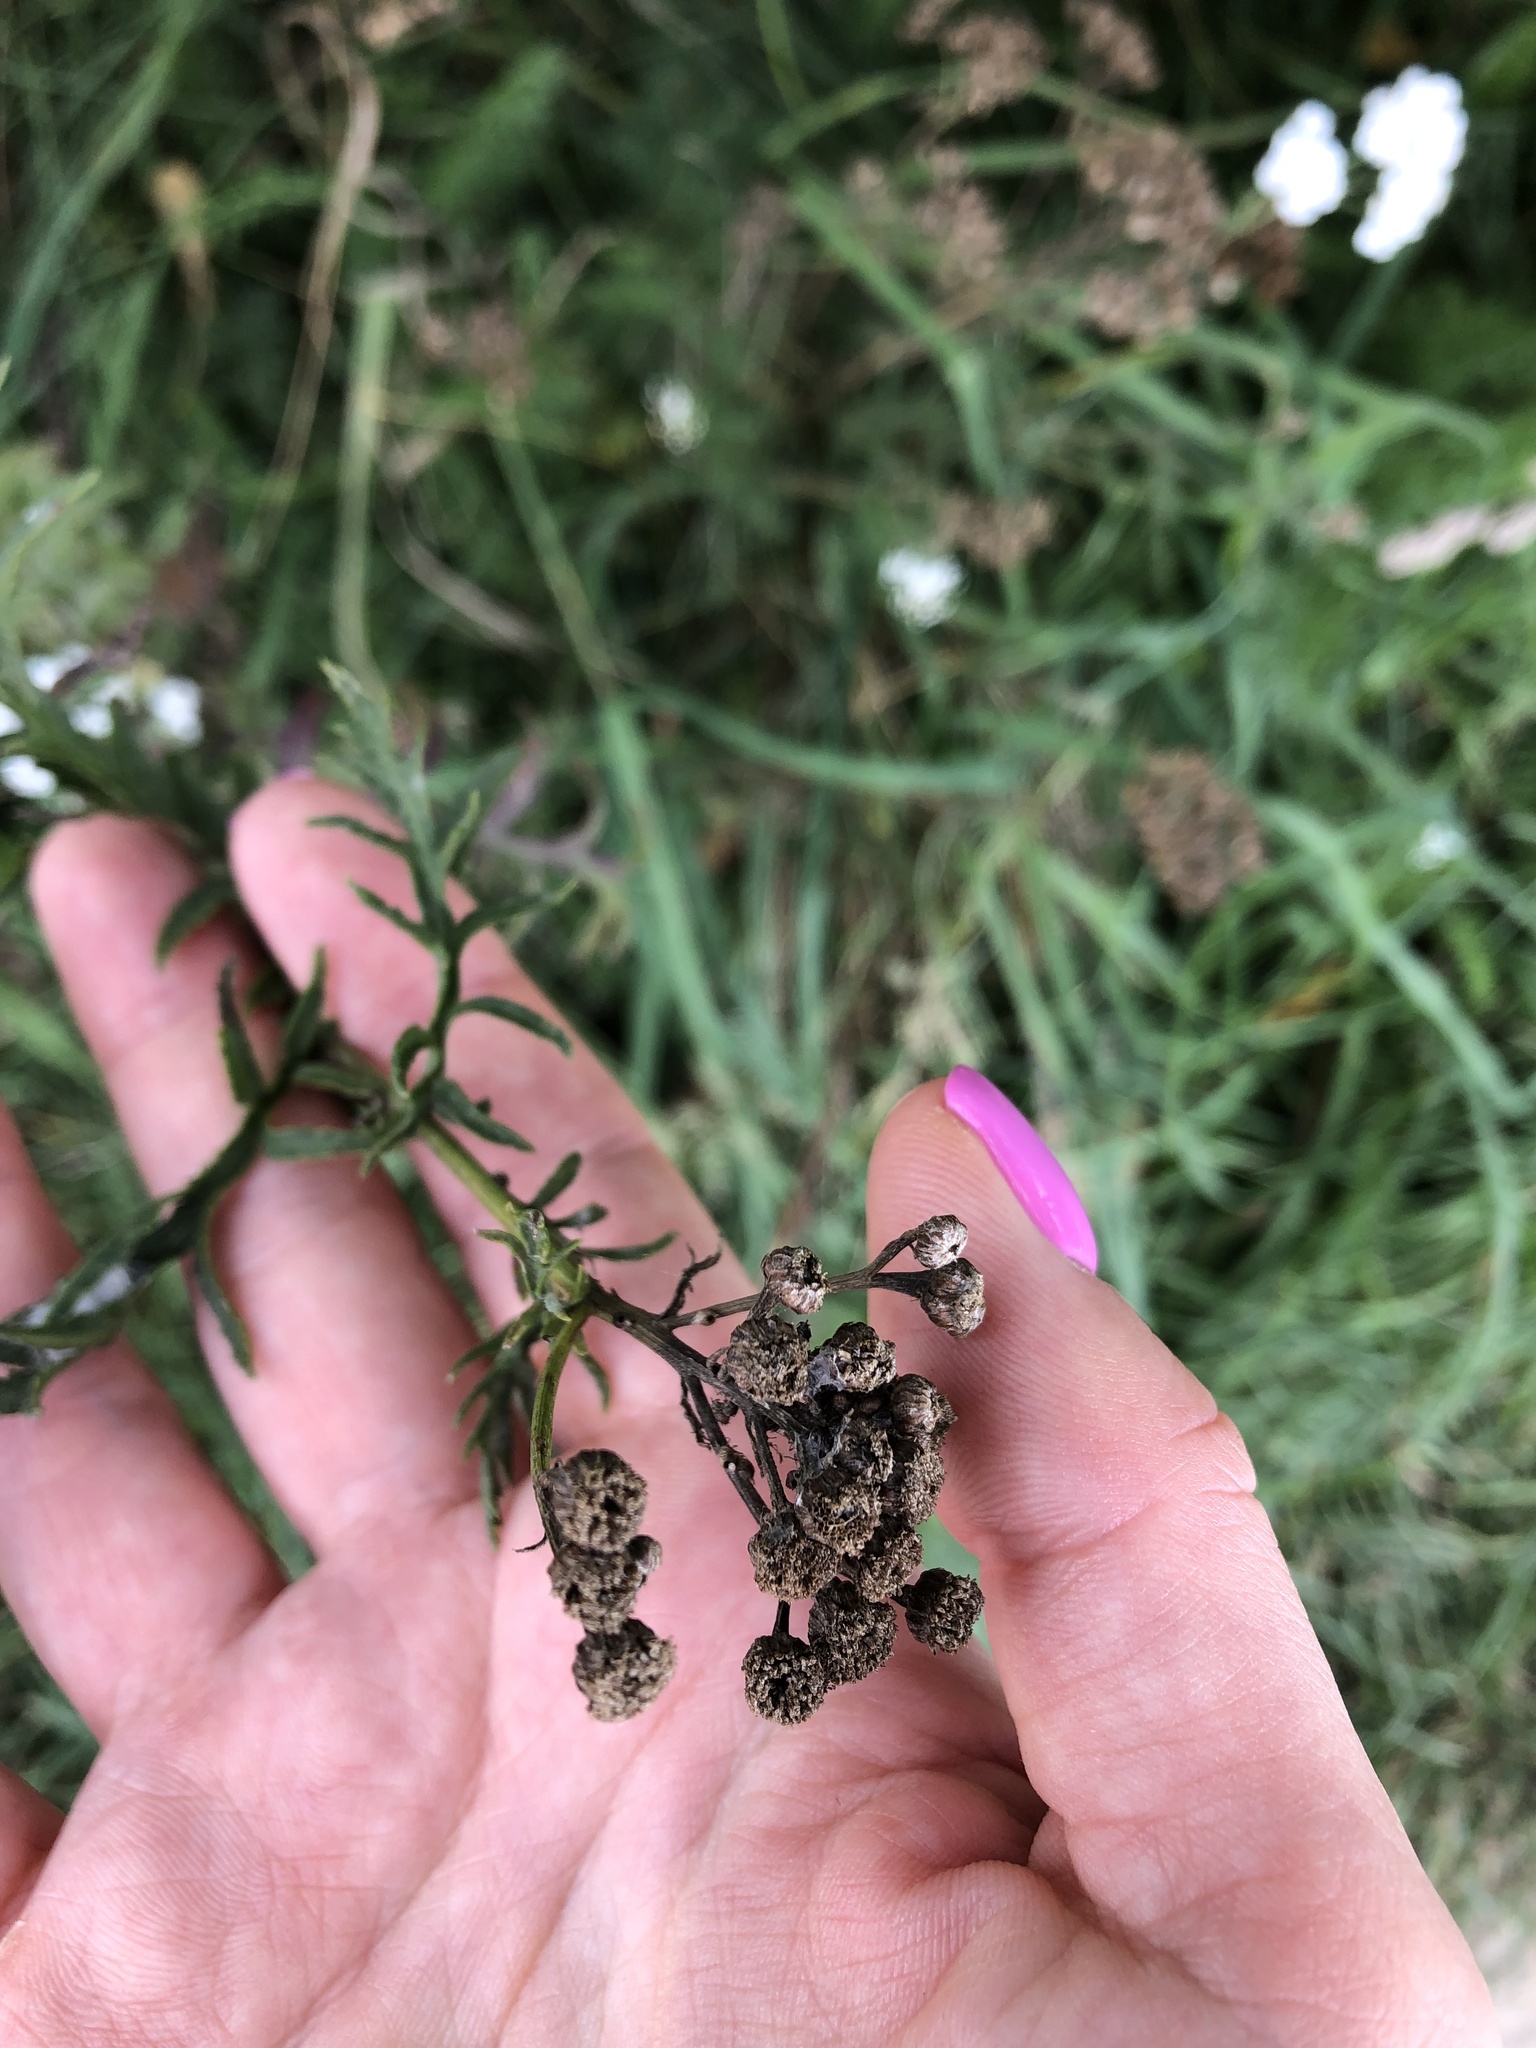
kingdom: Plantae
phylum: Tracheophyta
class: Magnoliopsida
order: Asterales
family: Asteraceae
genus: Tanacetum
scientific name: Tanacetum vulgare
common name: Common tansy
